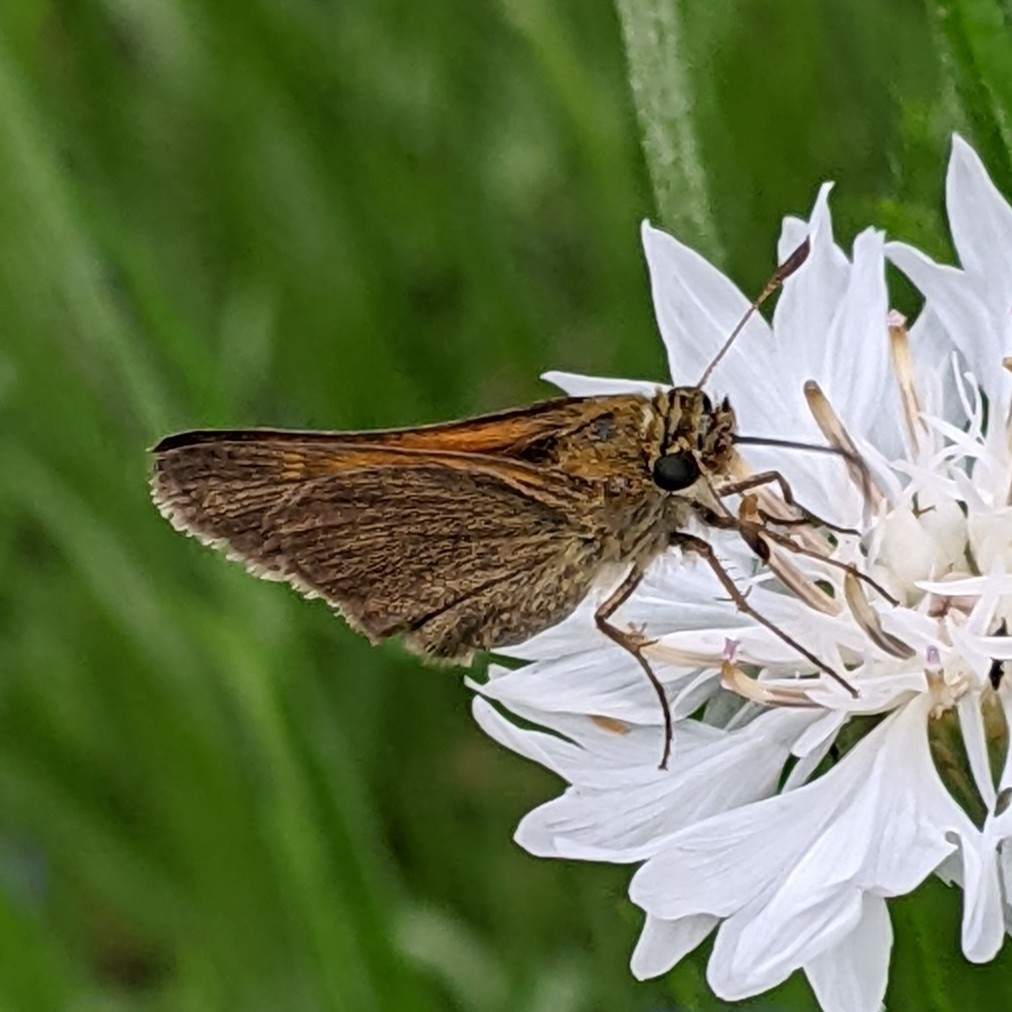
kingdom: Animalia
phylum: Arthropoda
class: Insecta
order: Lepidoptera
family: Hesperiidae
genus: Polites
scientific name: Polites themistocles
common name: Tawny-edged skipper
